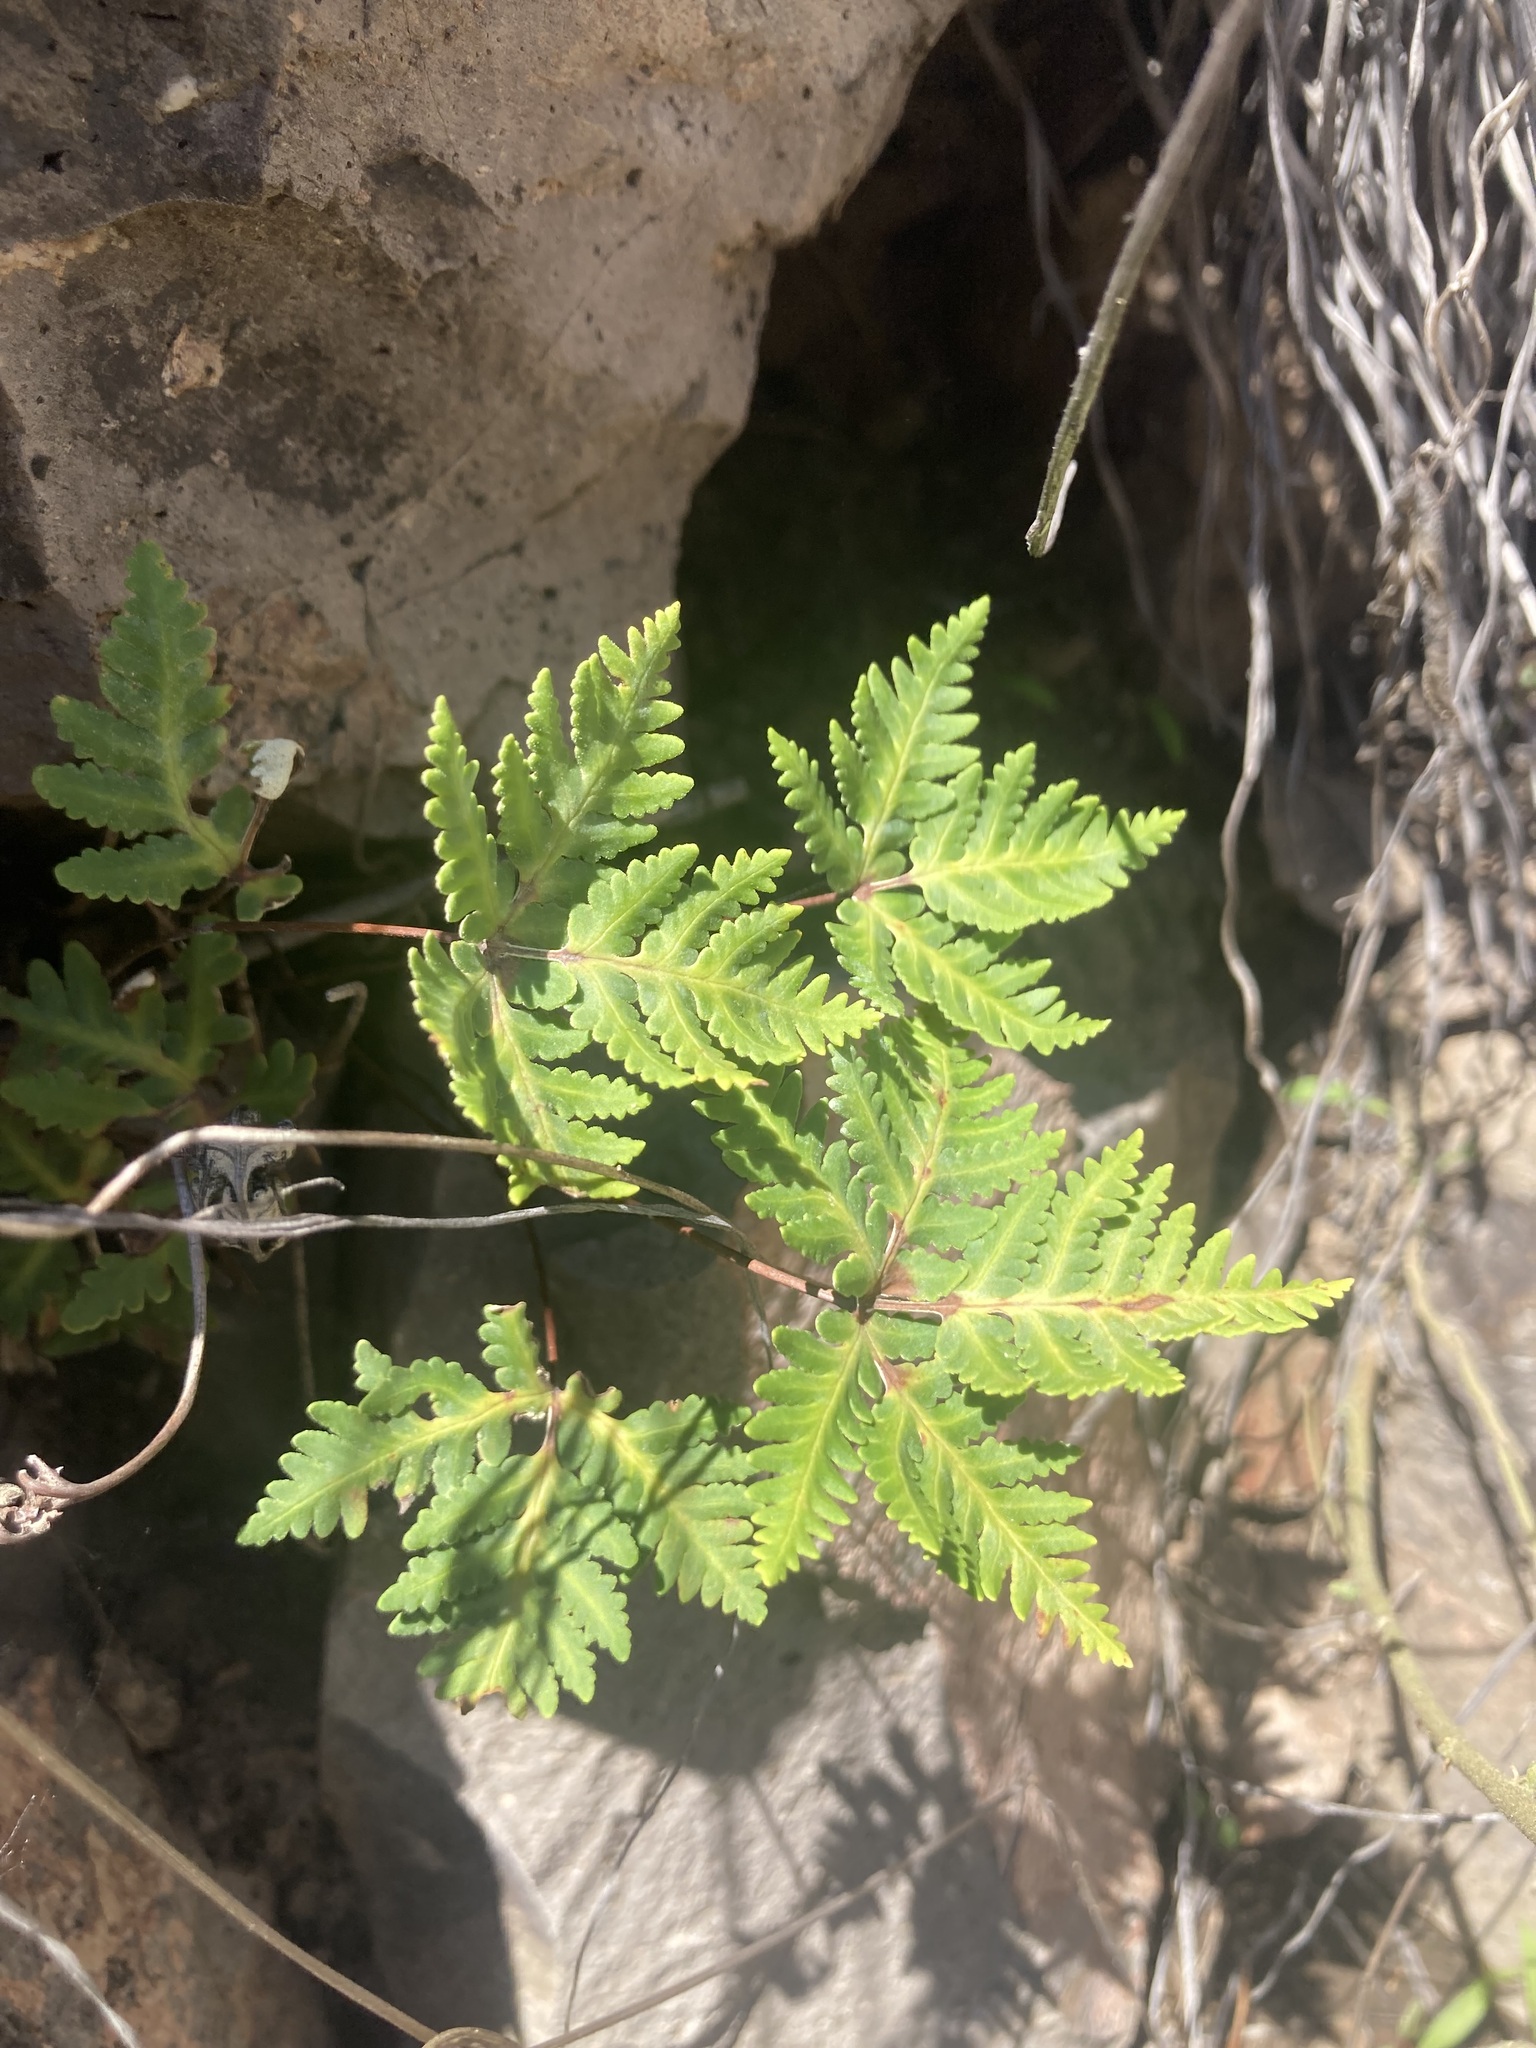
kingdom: Plantae
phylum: Tracheophyta
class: Polypodiopsida
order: Polypodiales
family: Pteridaceae
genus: Notholaena
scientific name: Notholaena standleyi
